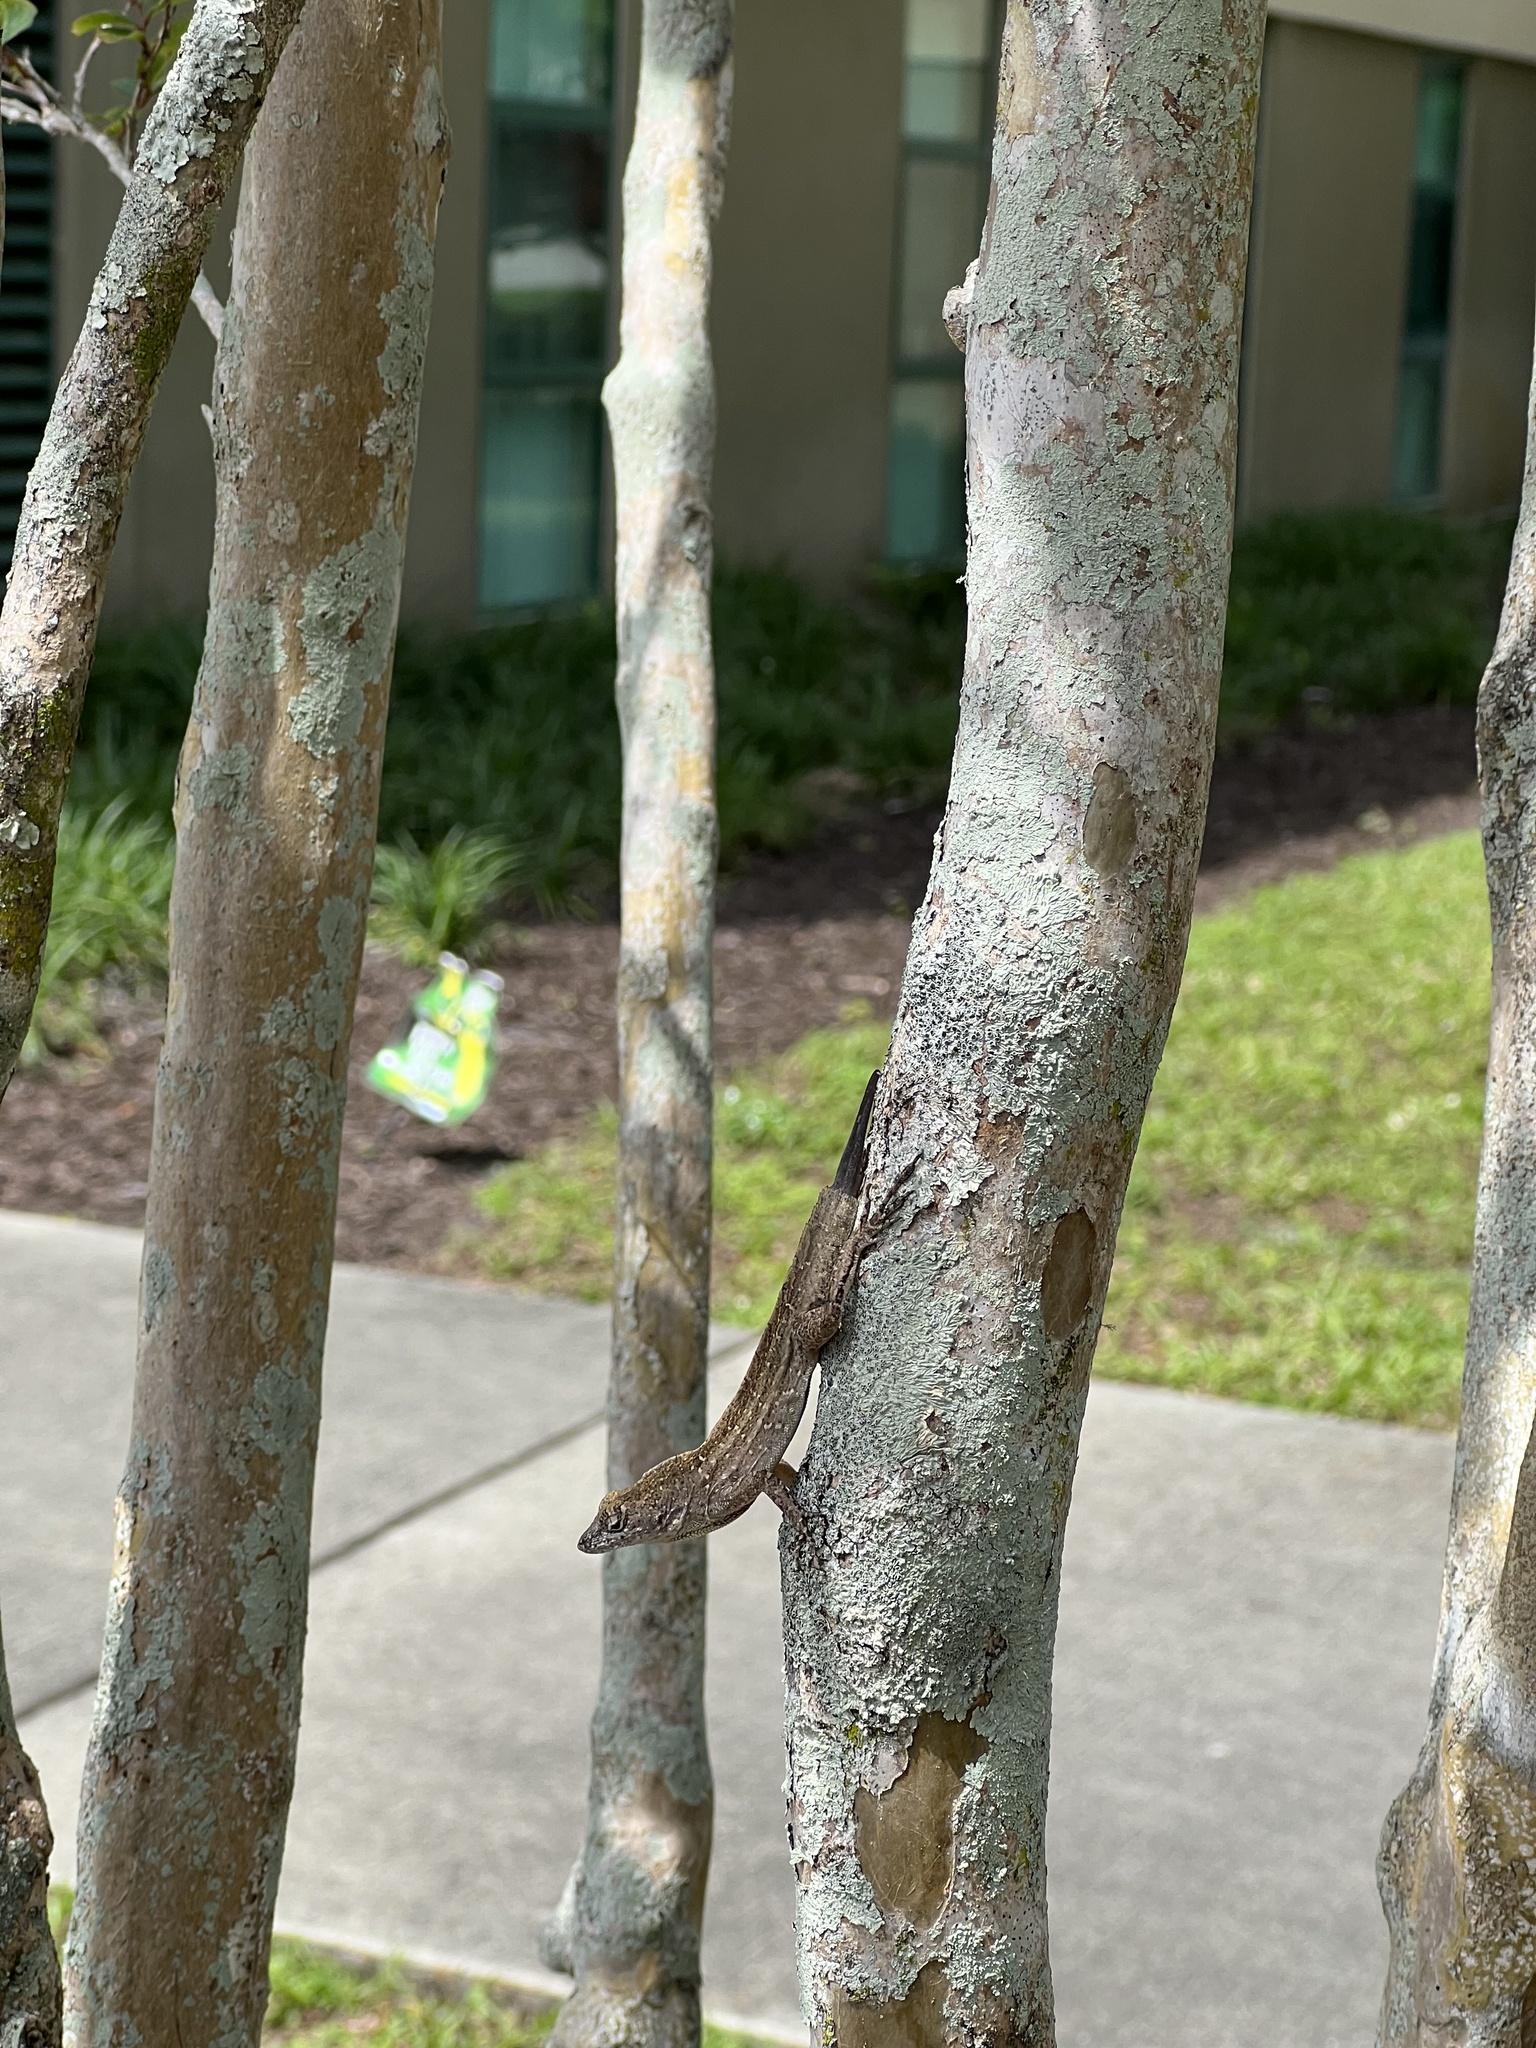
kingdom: Animalia
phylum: Chordata
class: Squamata
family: Dactyloidae
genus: Anolis
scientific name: Anolis sagrei
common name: Brown anole
